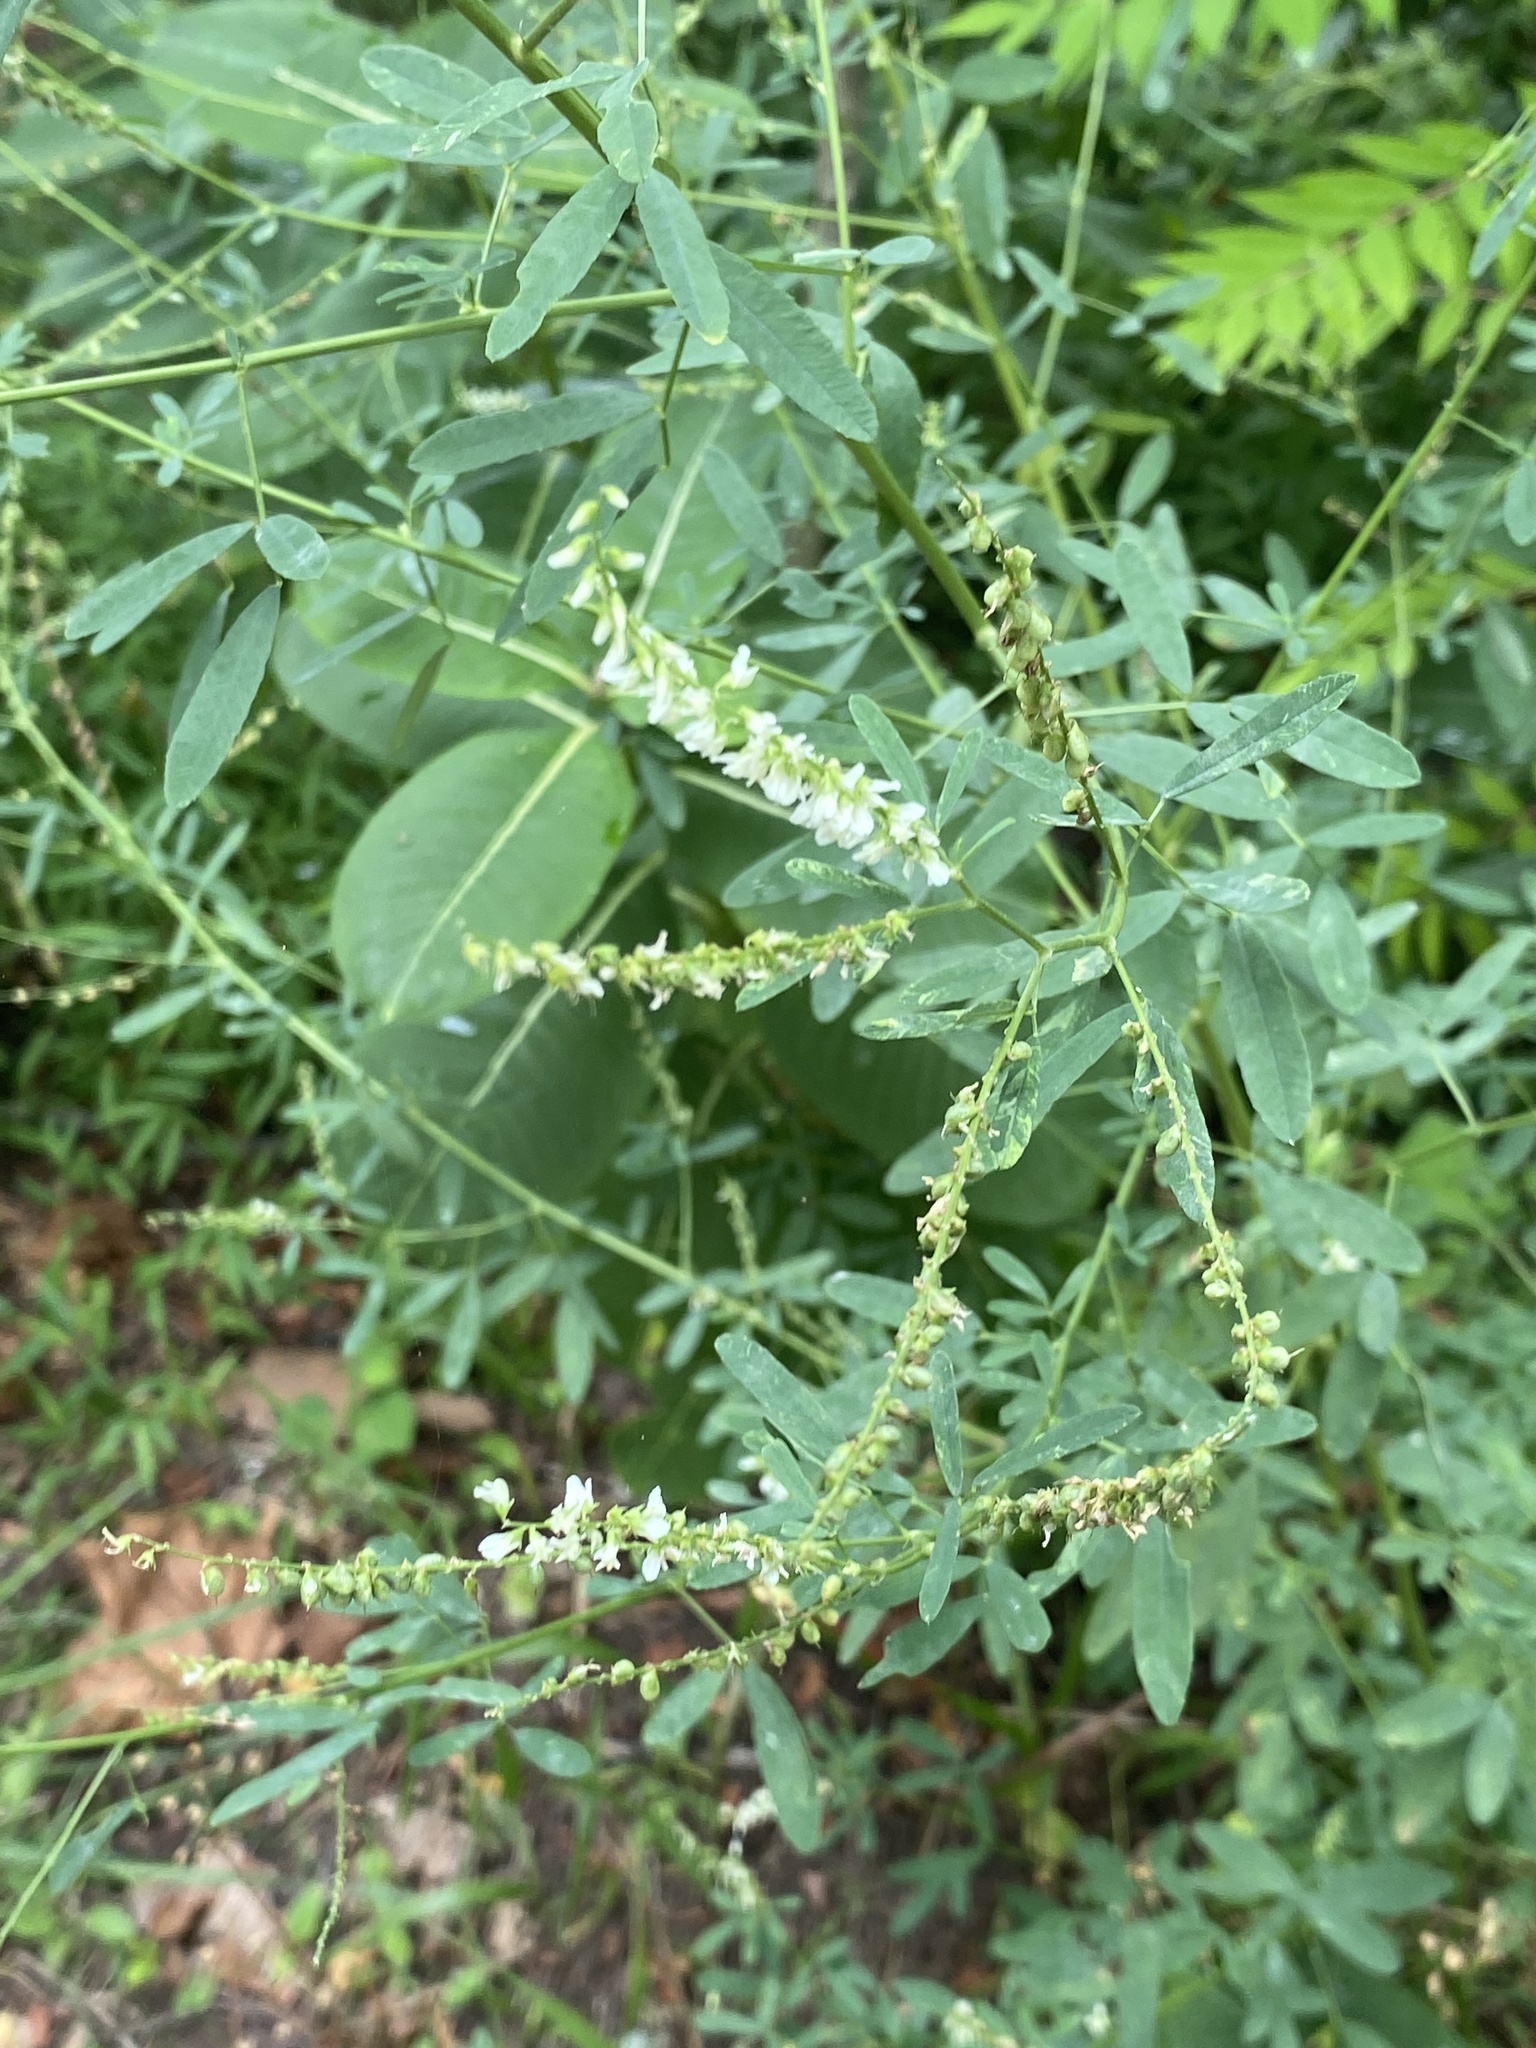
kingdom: Plantae
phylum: Tracheophyta
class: Magnoliopsida
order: Fabales
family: Fabaceae
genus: Melilotus
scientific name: Melilotus albus
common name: White melilot
